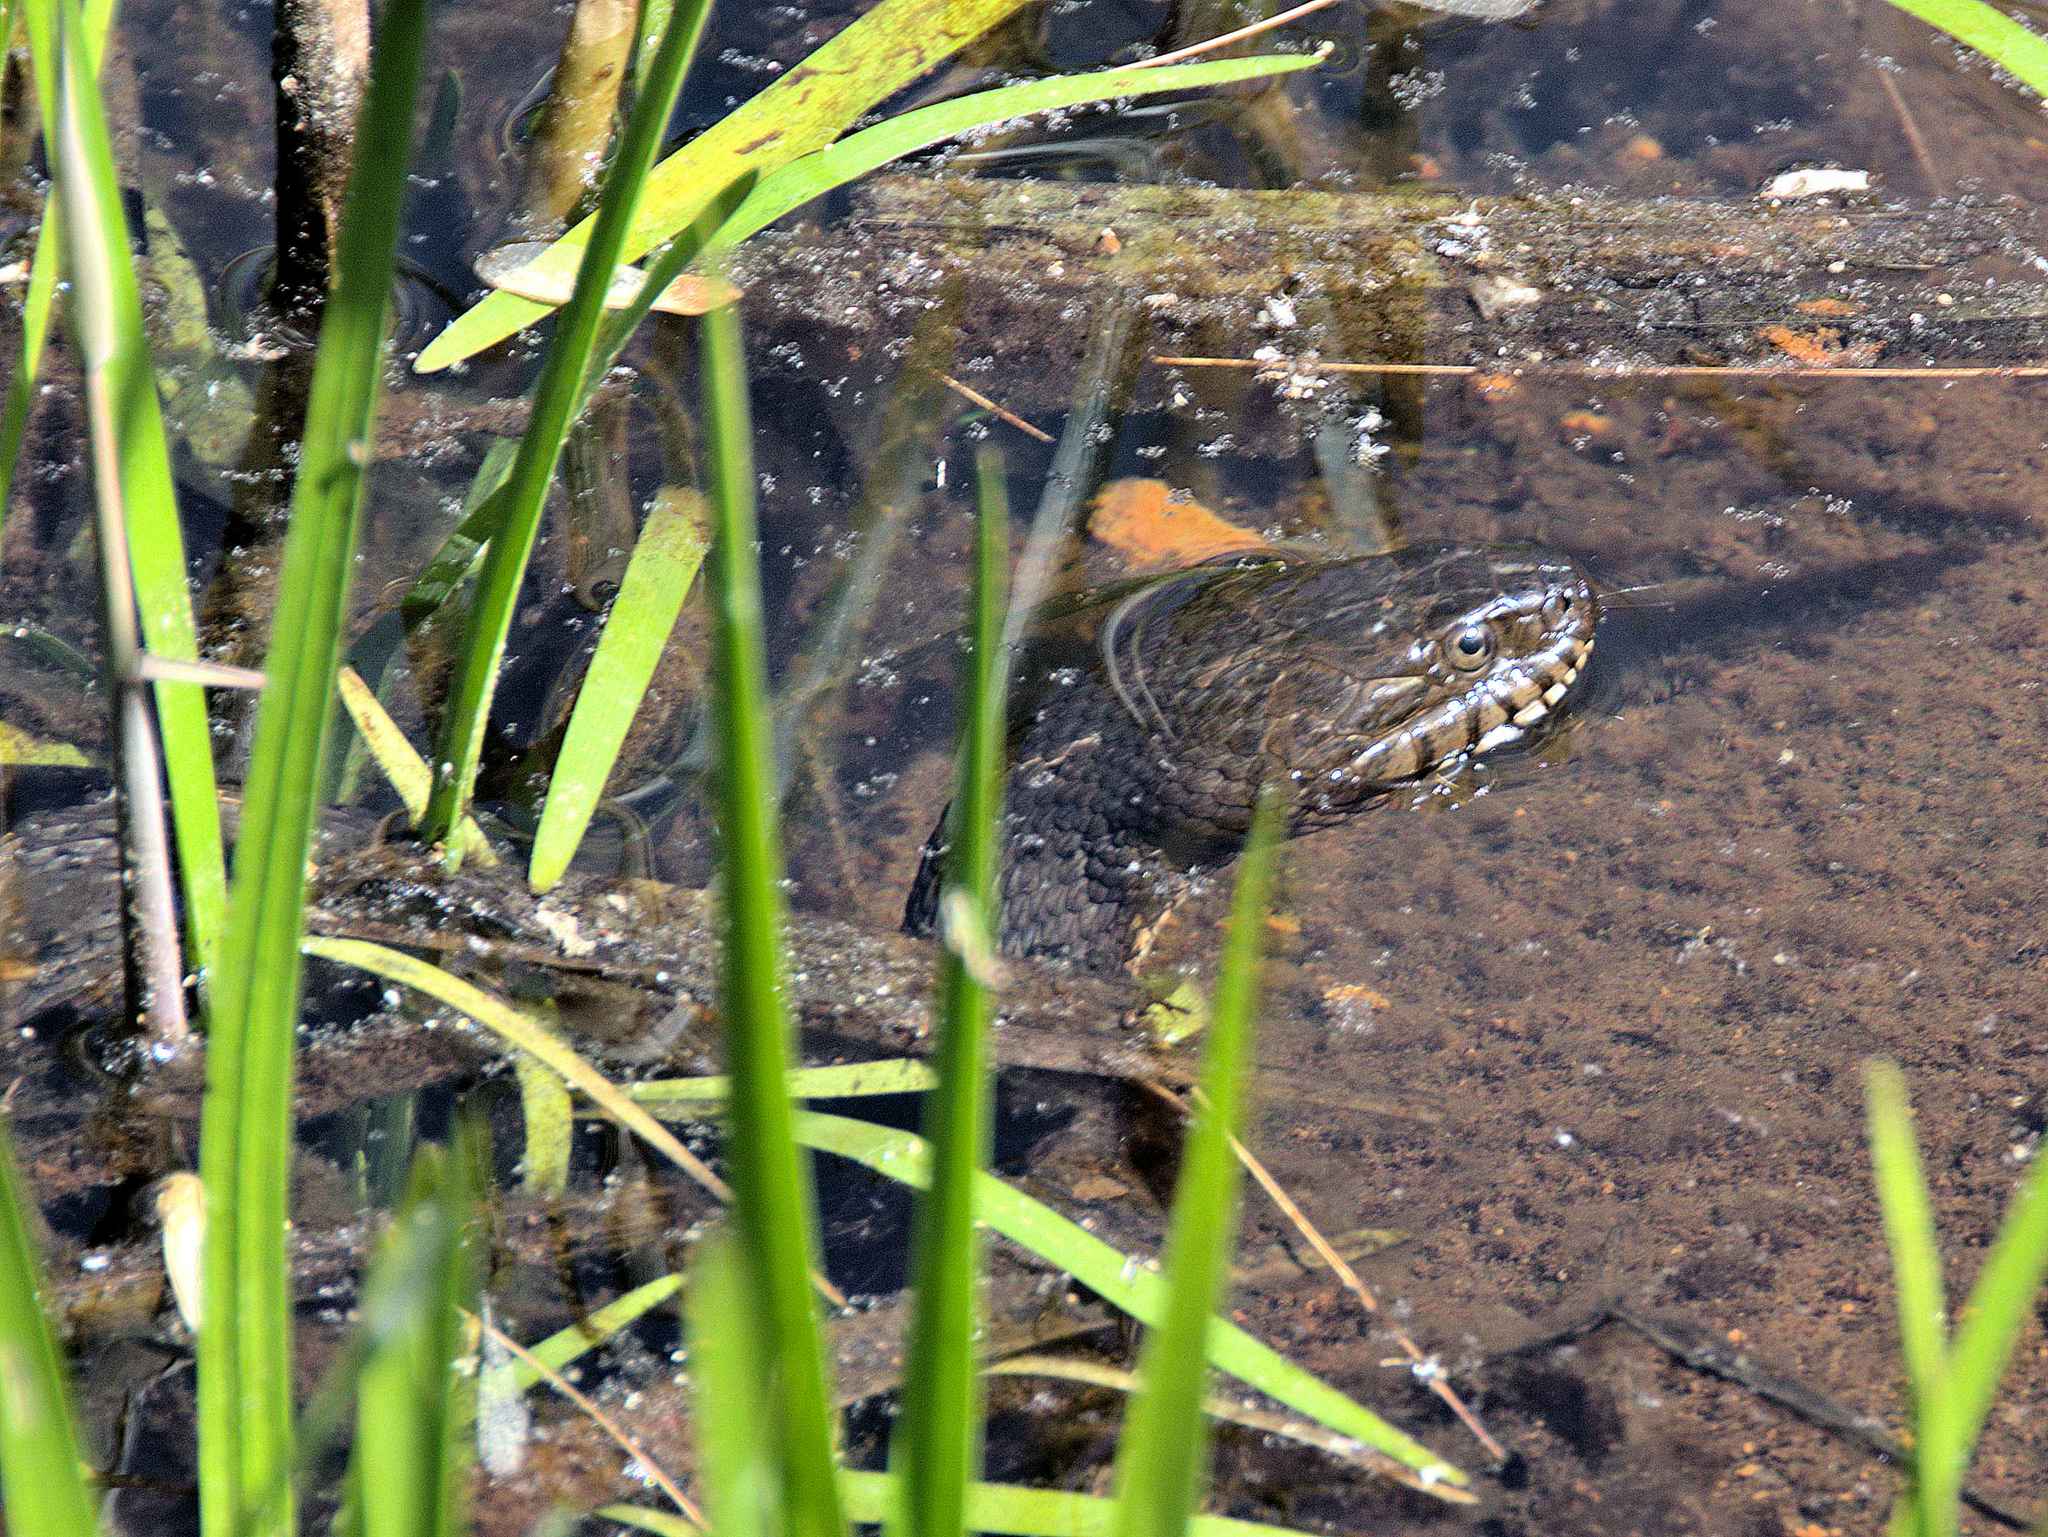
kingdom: Animalia
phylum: Chordata
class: Squamata
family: Colubridae
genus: Nerodia
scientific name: Nerodia sipedon
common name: Northern water snake
